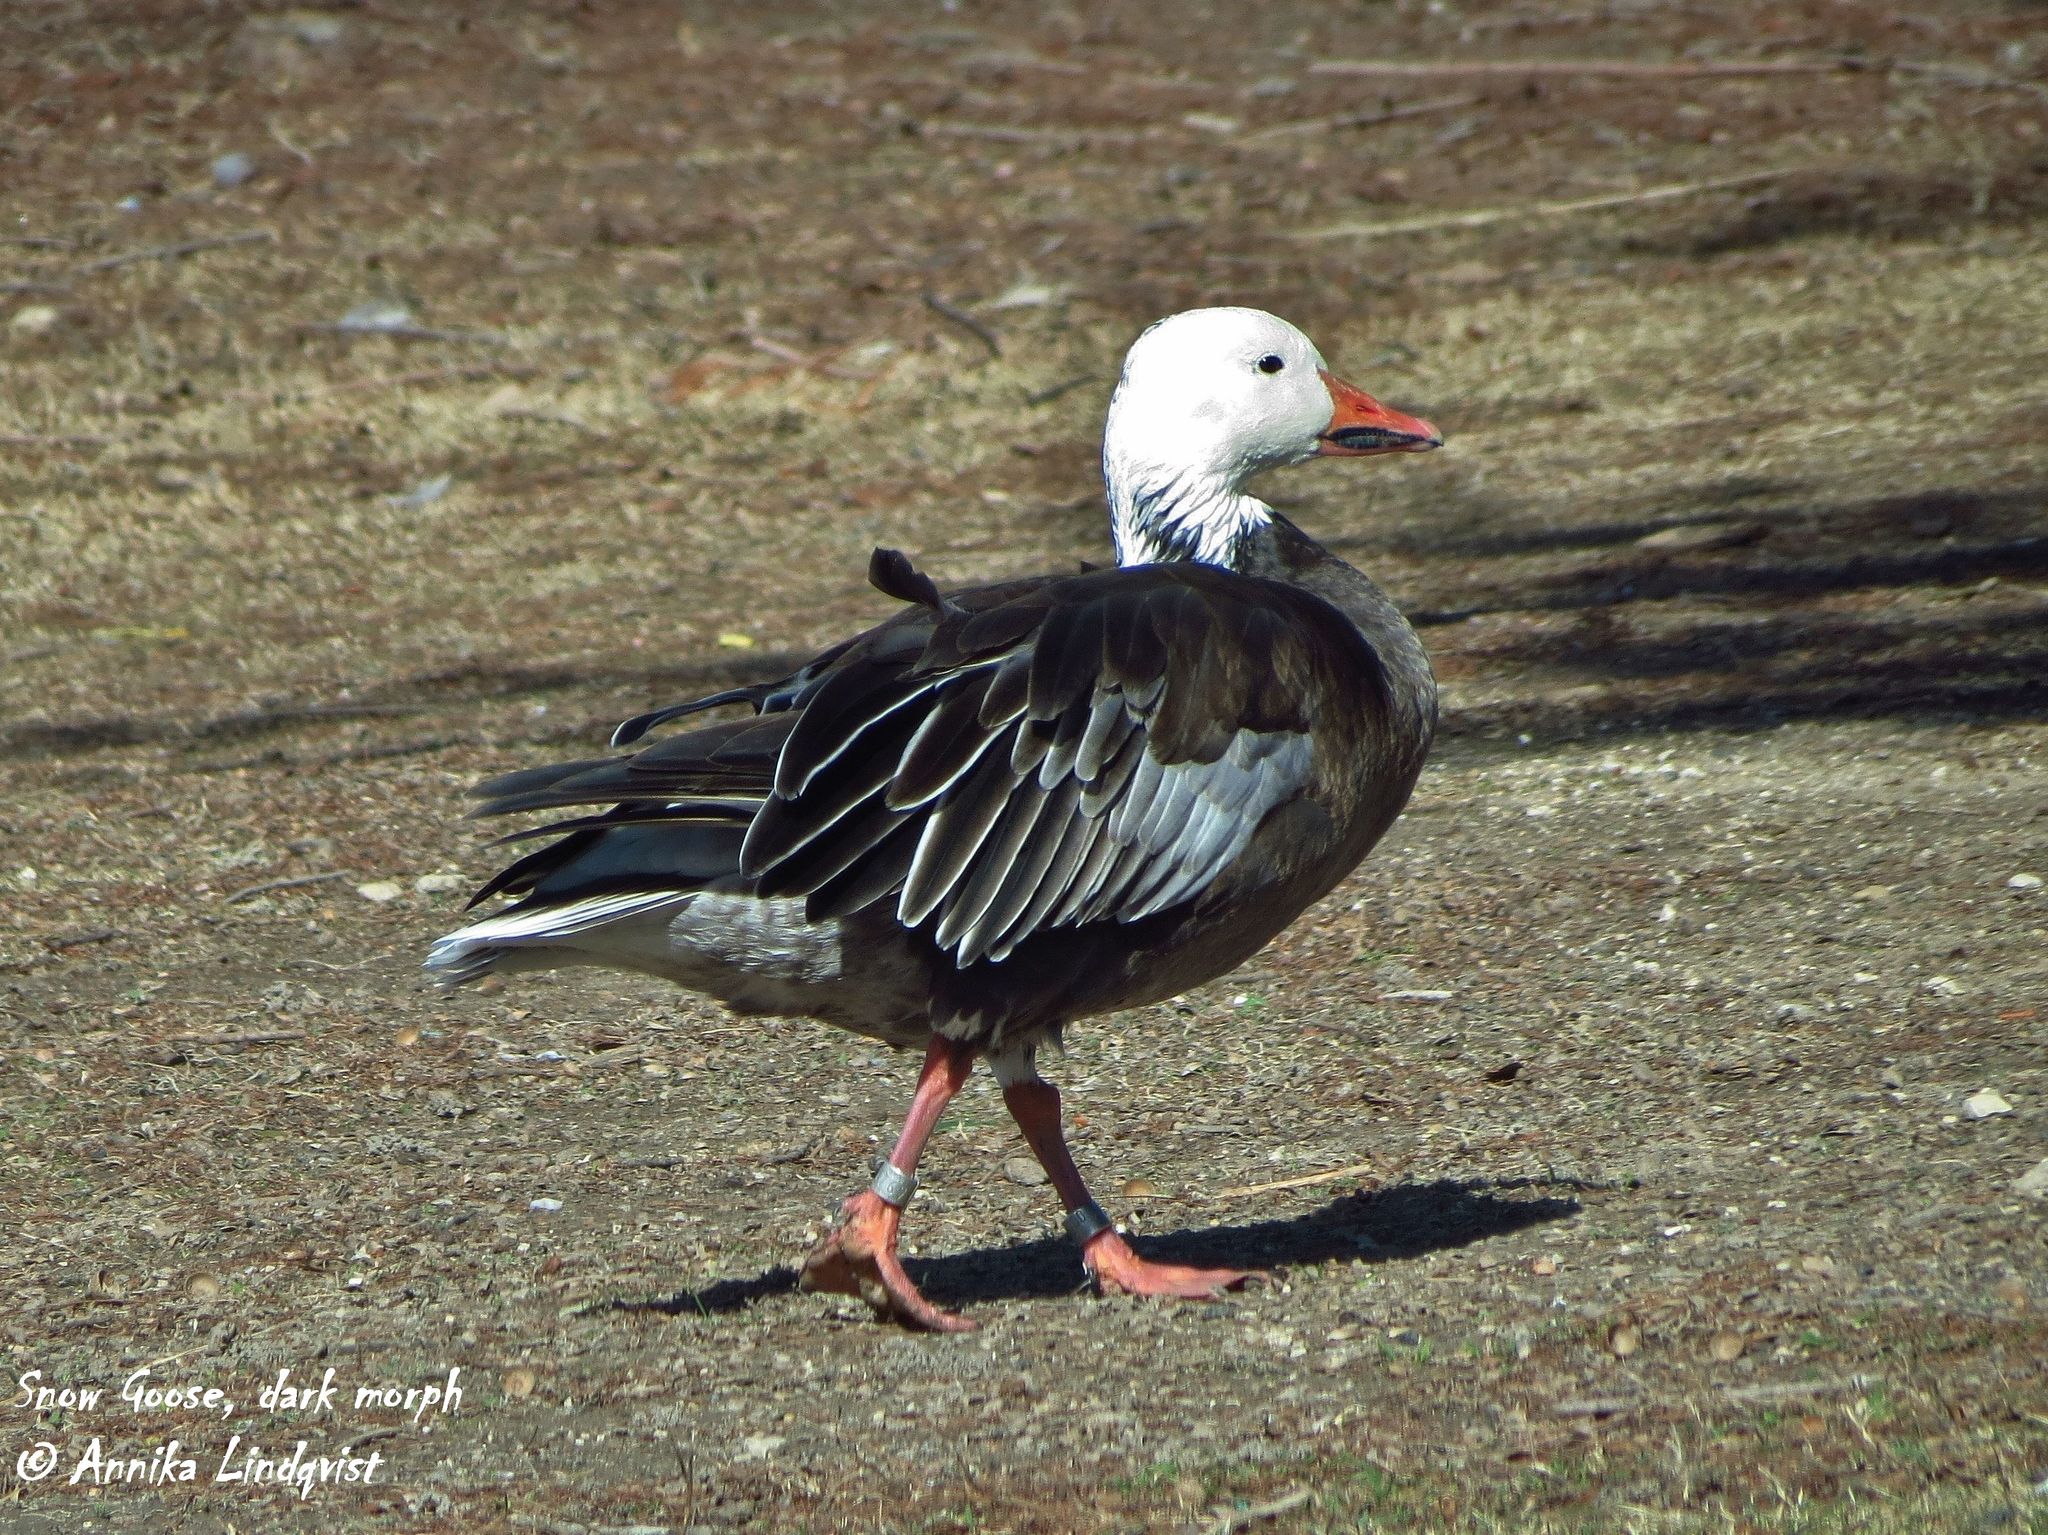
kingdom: Animalia
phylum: Chordata
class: Aves
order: Anseriformes
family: Anatidae
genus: Anser
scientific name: Anser caerulescens
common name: Snow goose
